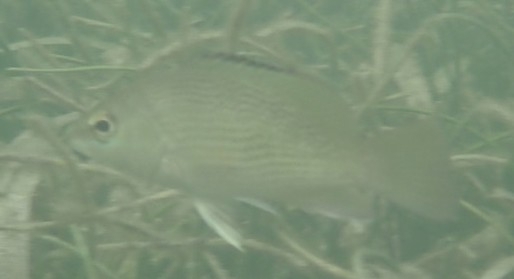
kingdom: Animalia
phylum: Chordata
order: Perciformes
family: Lutjanidae
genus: Lutjanus
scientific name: Lutjanus griseus
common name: Gray snapper
